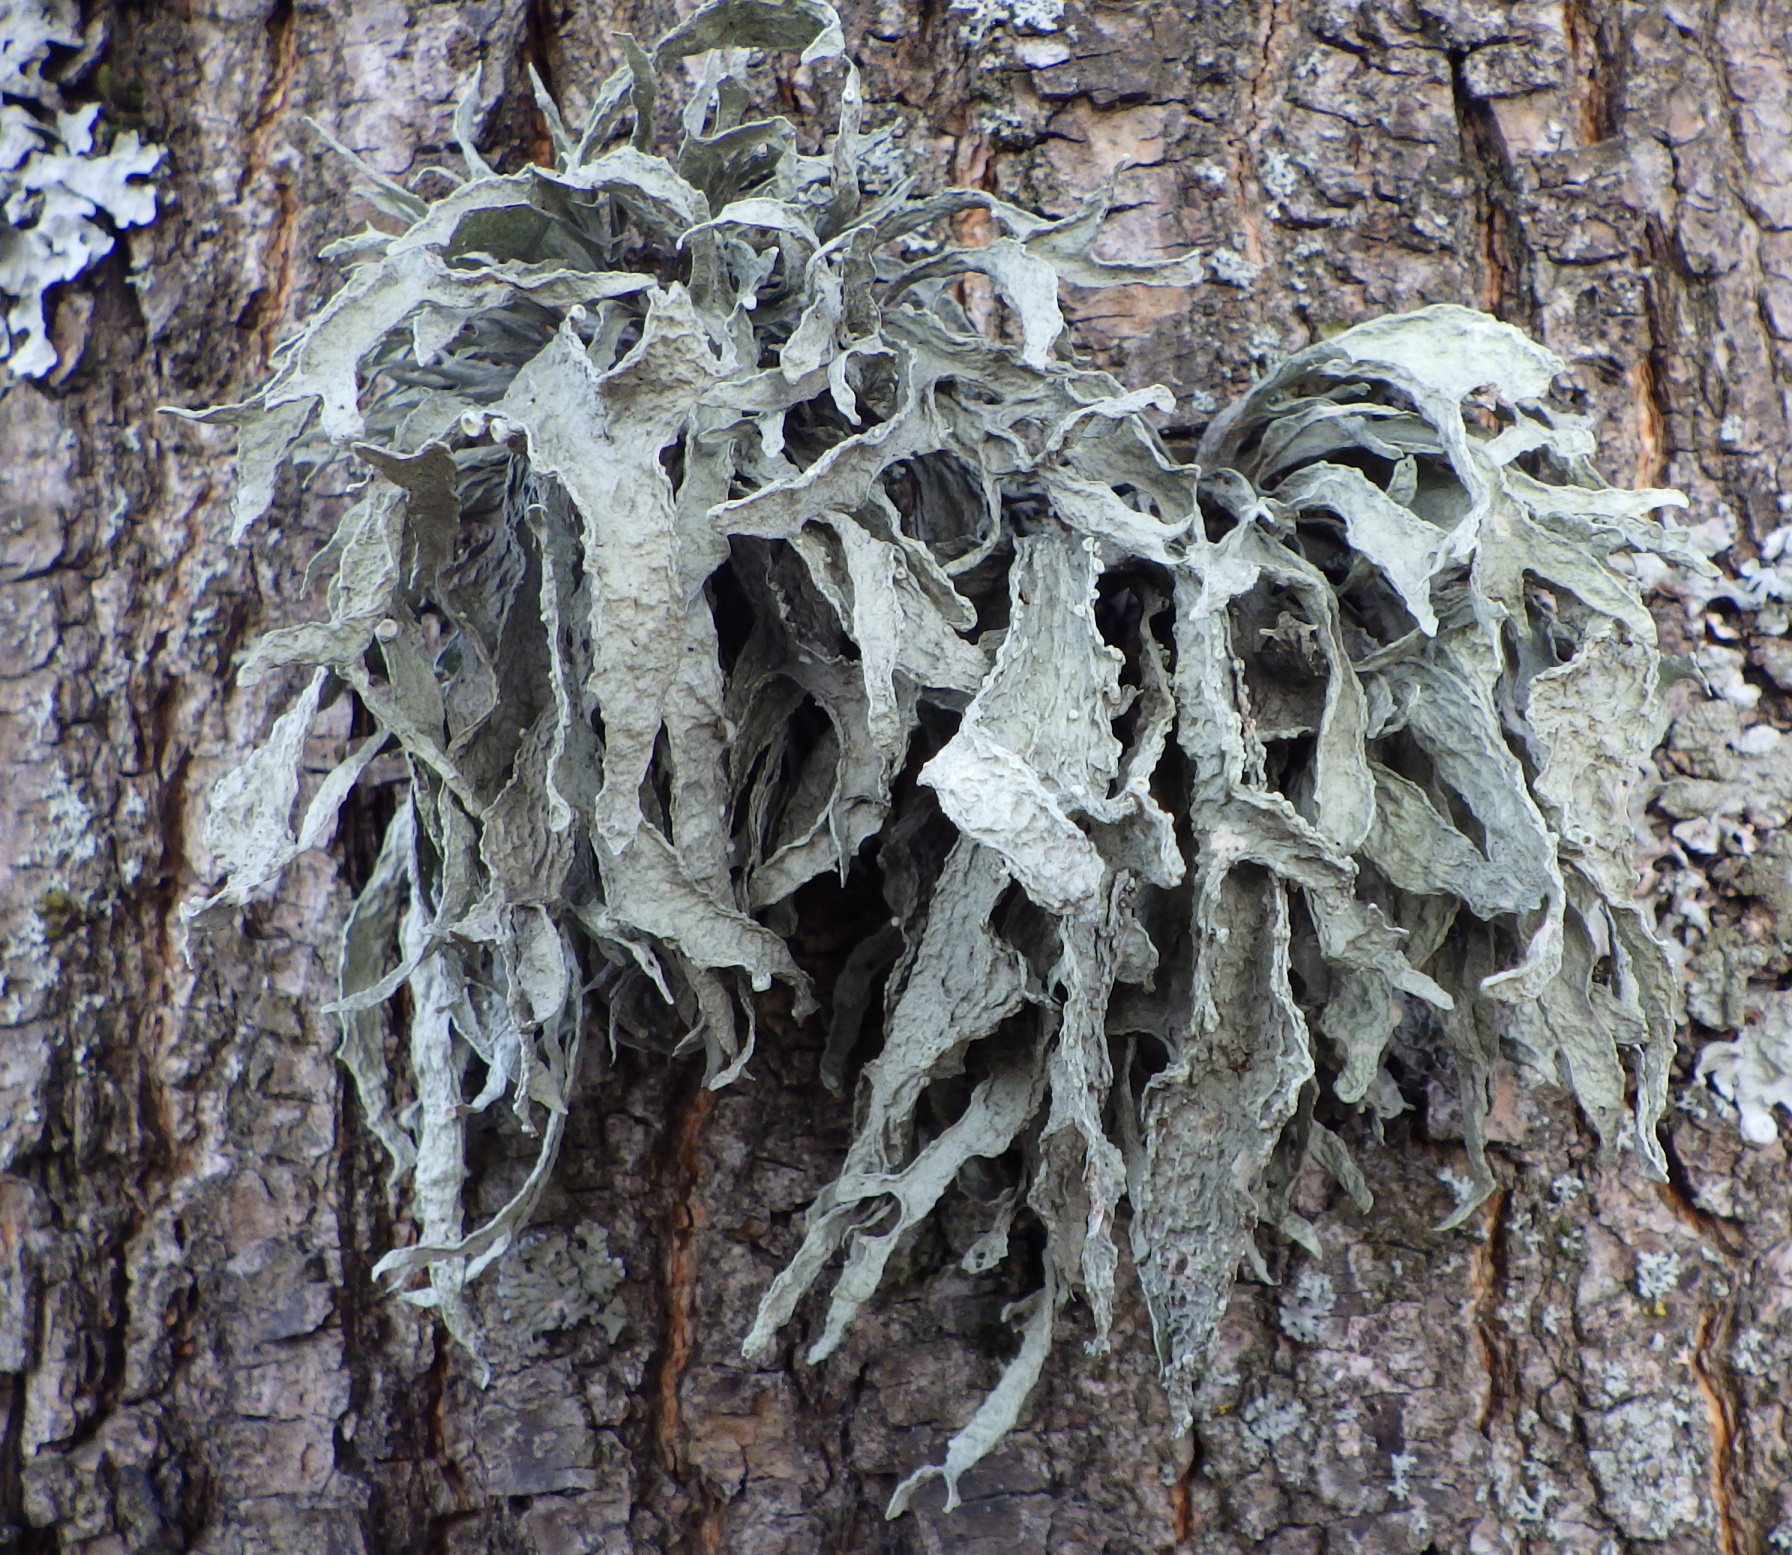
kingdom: Fungi
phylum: Ascomycota
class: Lecanoromycetes
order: Lecanorales
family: Ramalinaceae
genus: Ramalina
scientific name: Ramalina fraxinea
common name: Cartilage lichen
